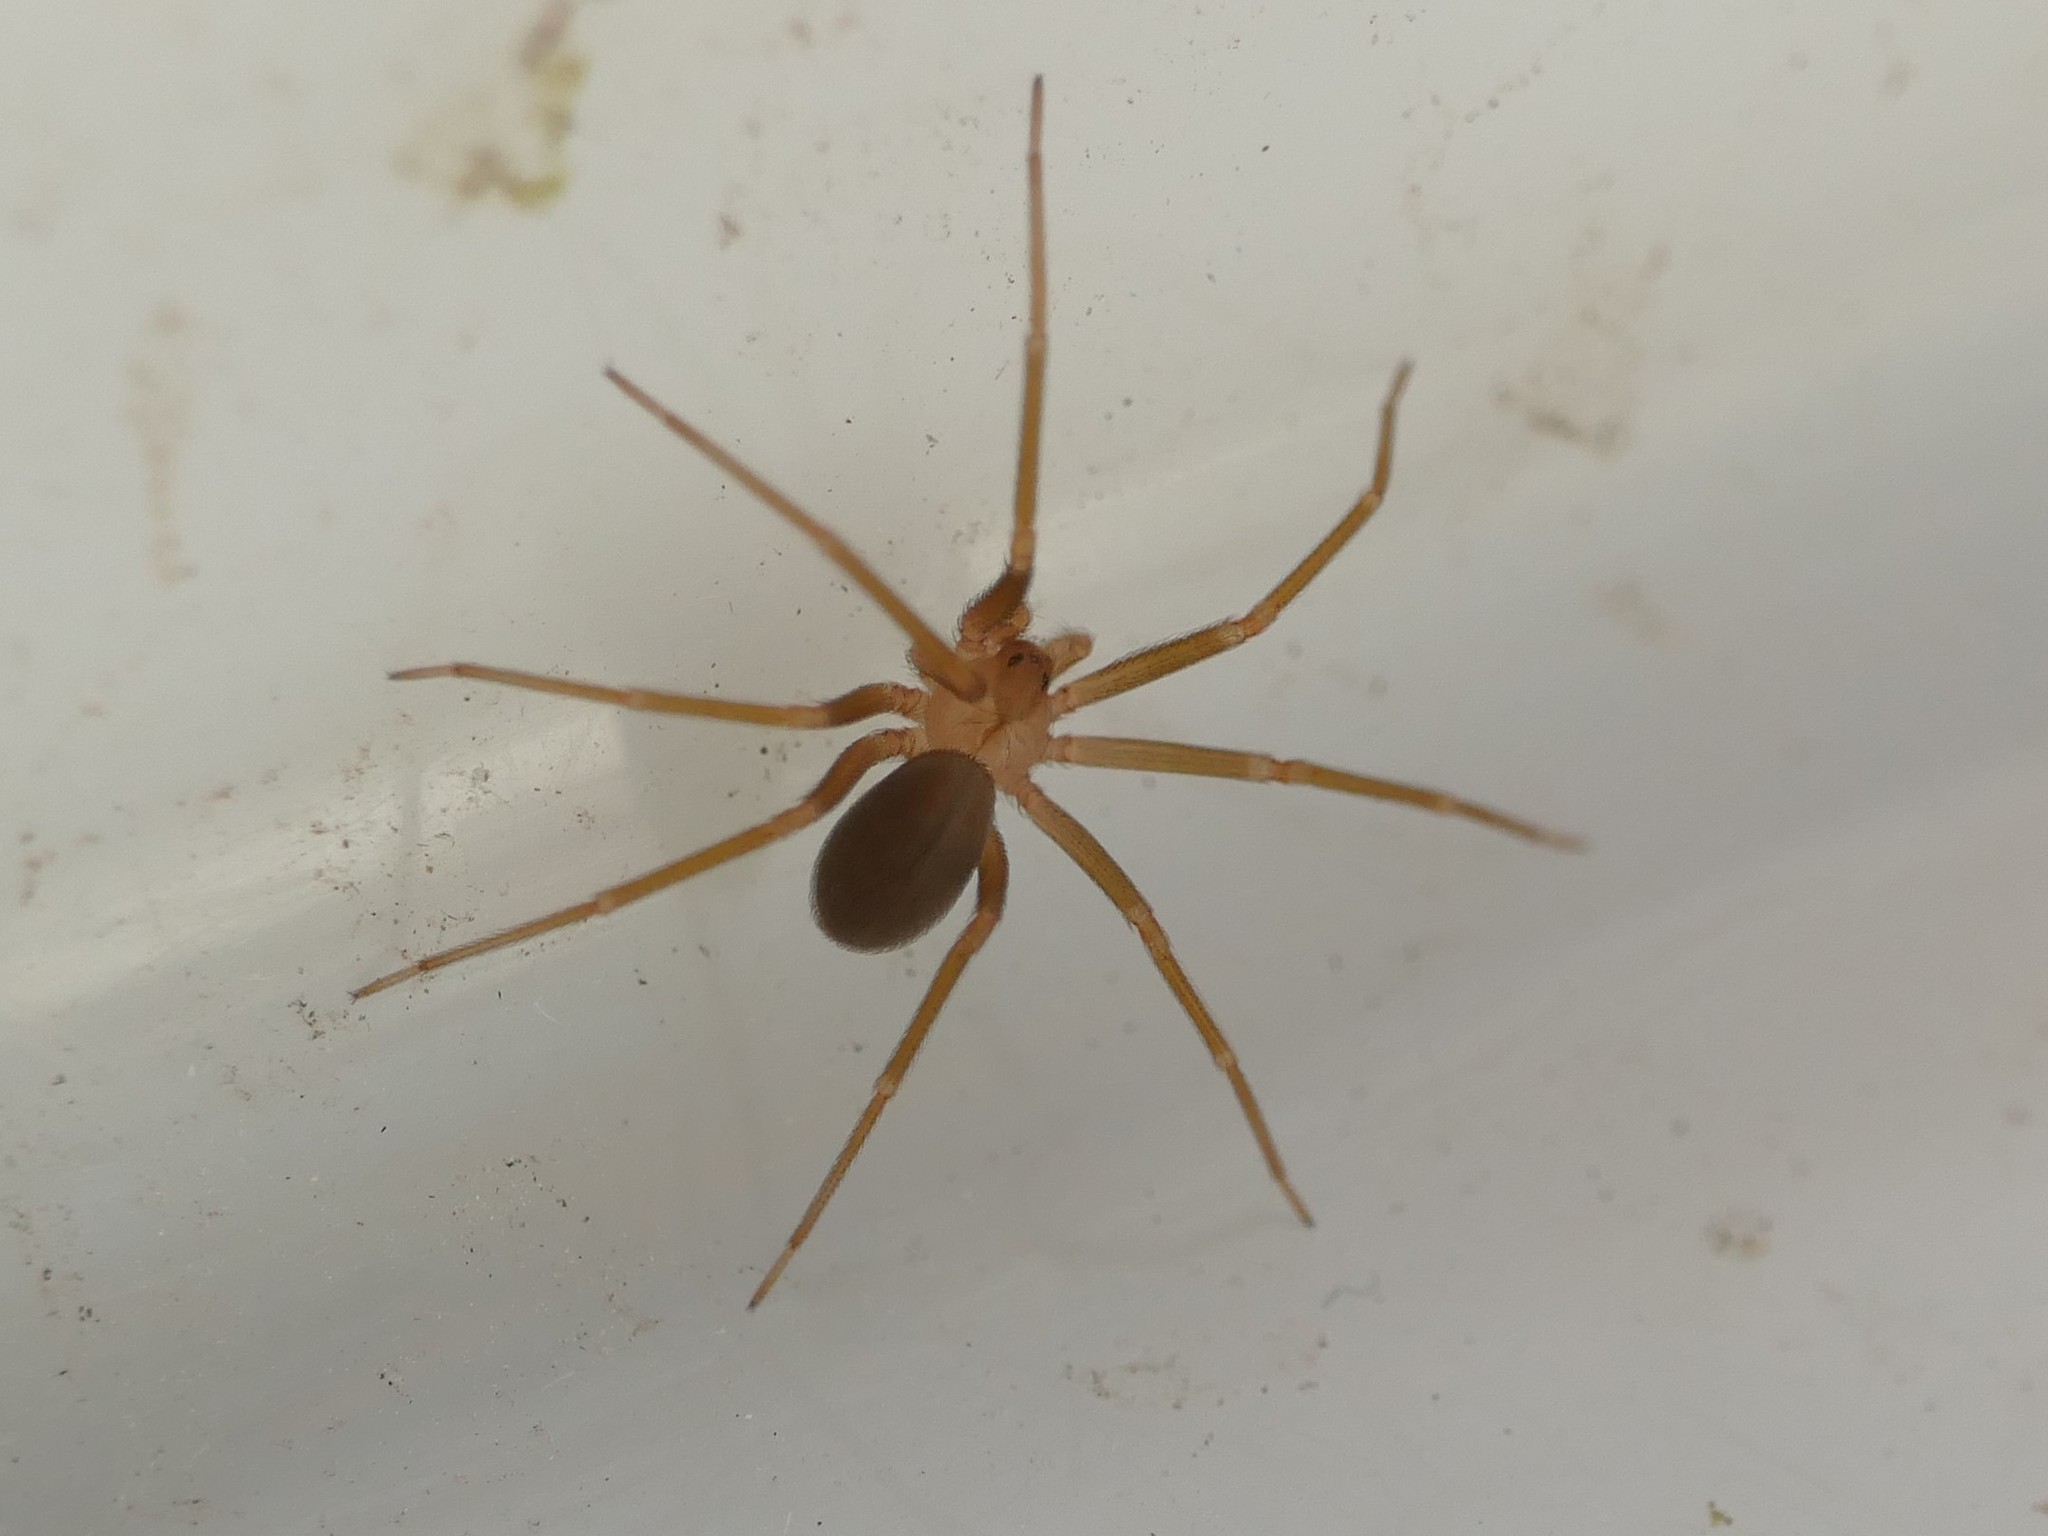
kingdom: Animalia
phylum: Arthropoda
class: Arachnida
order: Araneae
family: Sicariidae
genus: Loxosceles
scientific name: Loxosceles rufescens
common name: Mediterranean recluse spider
